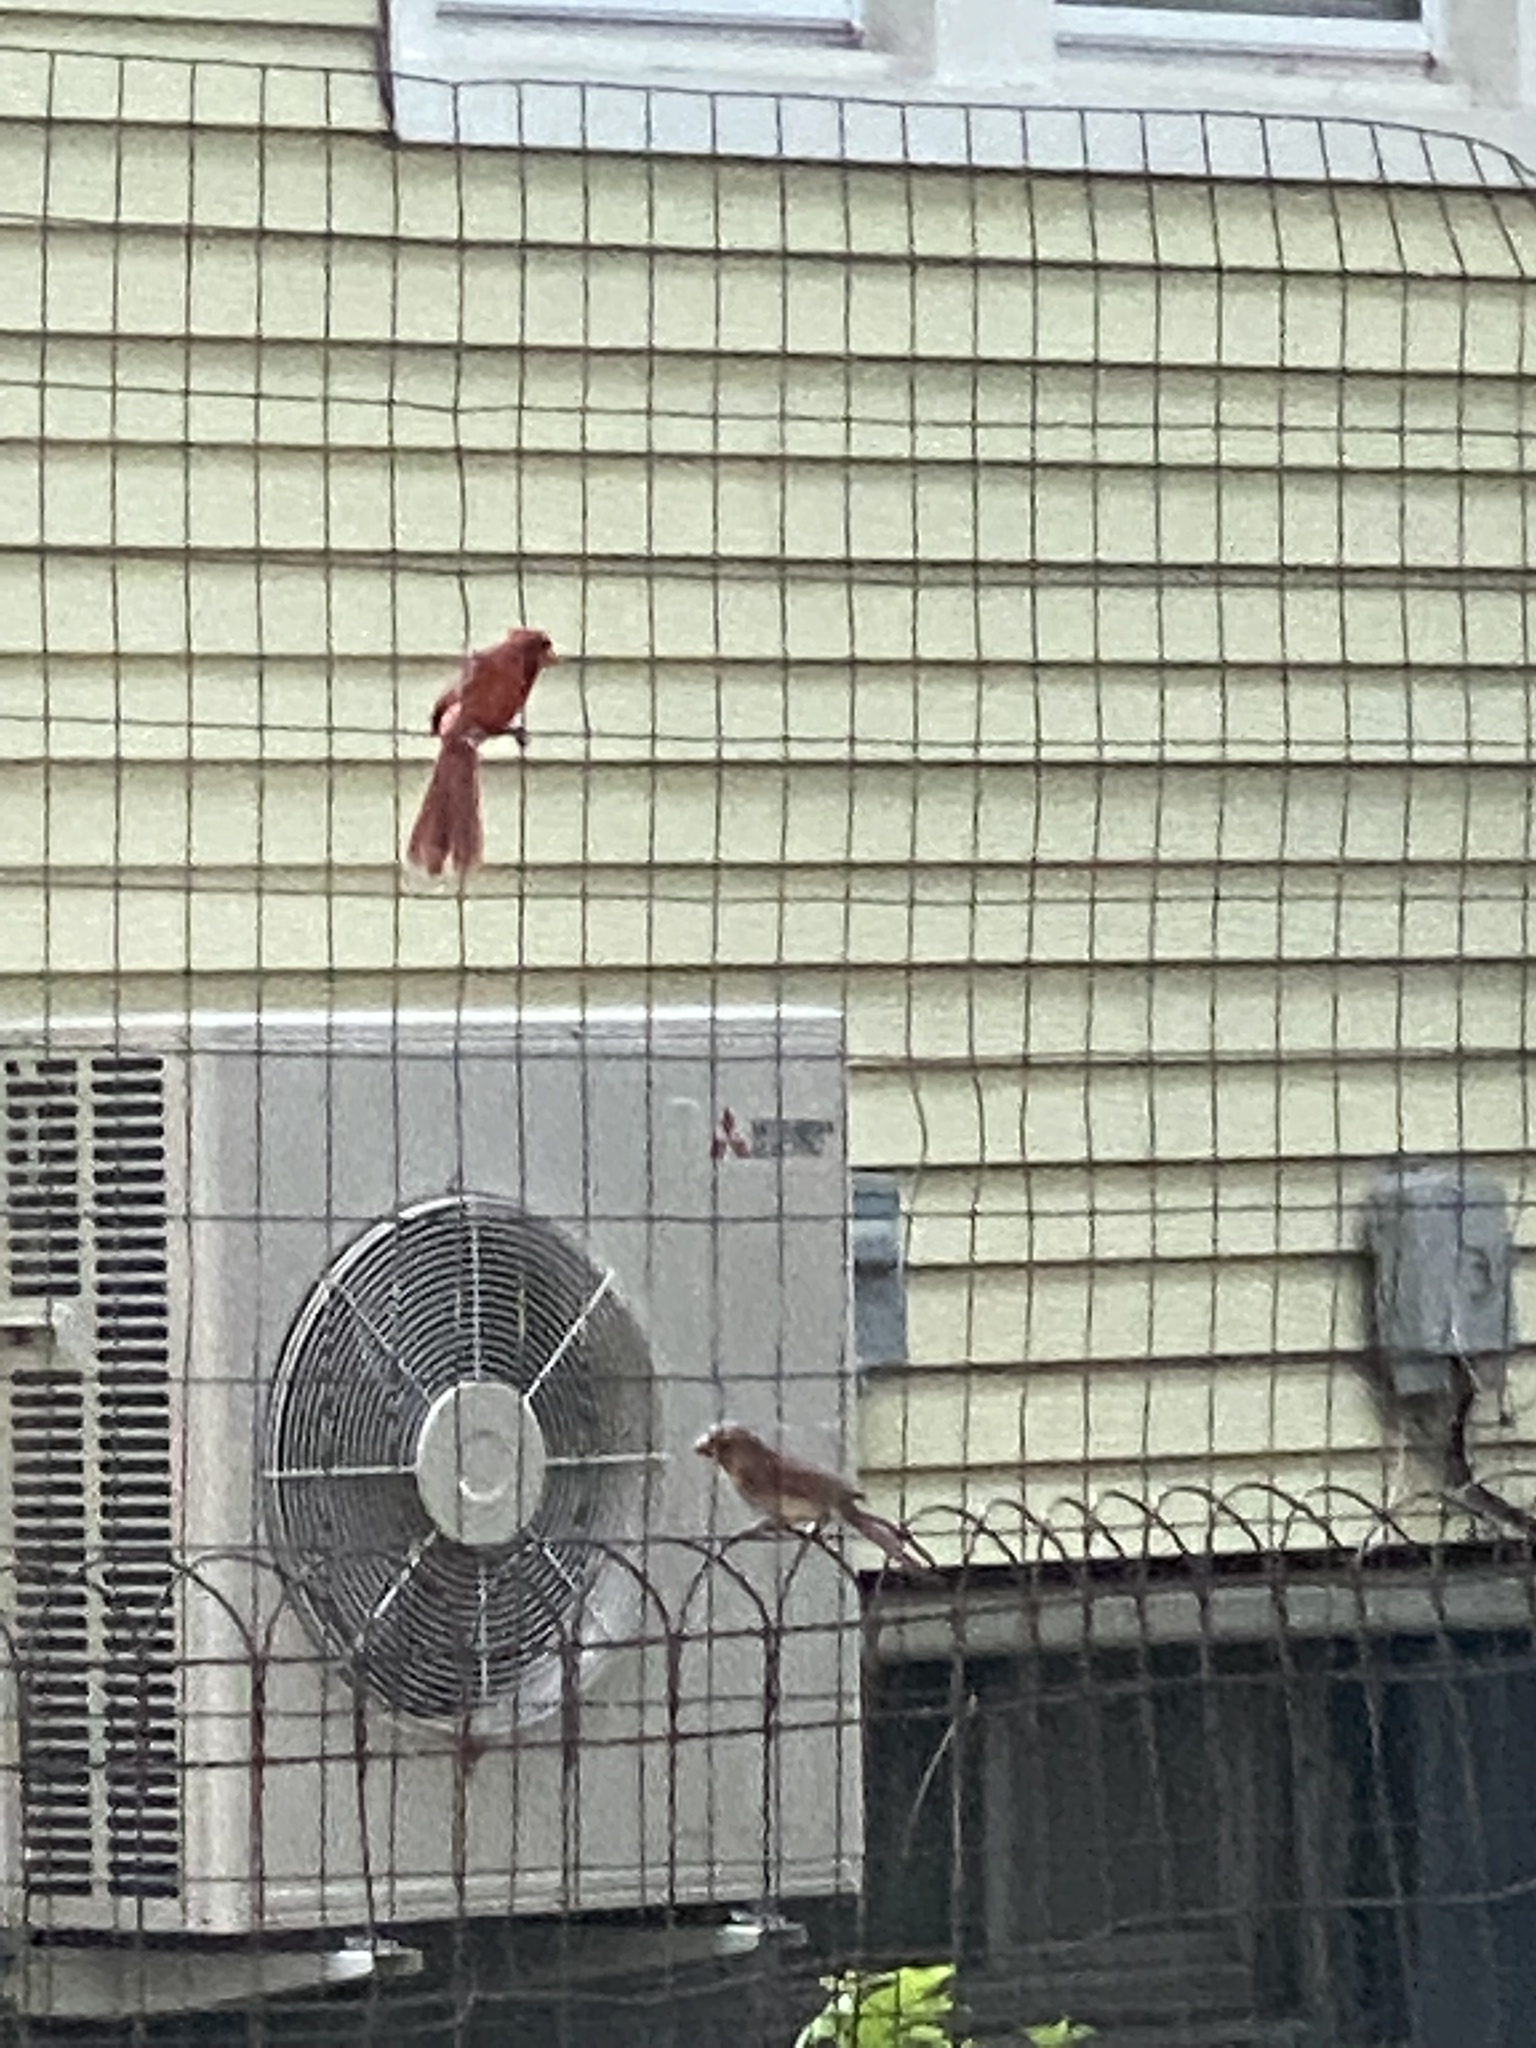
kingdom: Animalia
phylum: Chordata
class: Aves
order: Passeriformes
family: Cardinalidae
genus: Cardinalis
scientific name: Cardinalis cardinalis
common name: Northern cardinal
